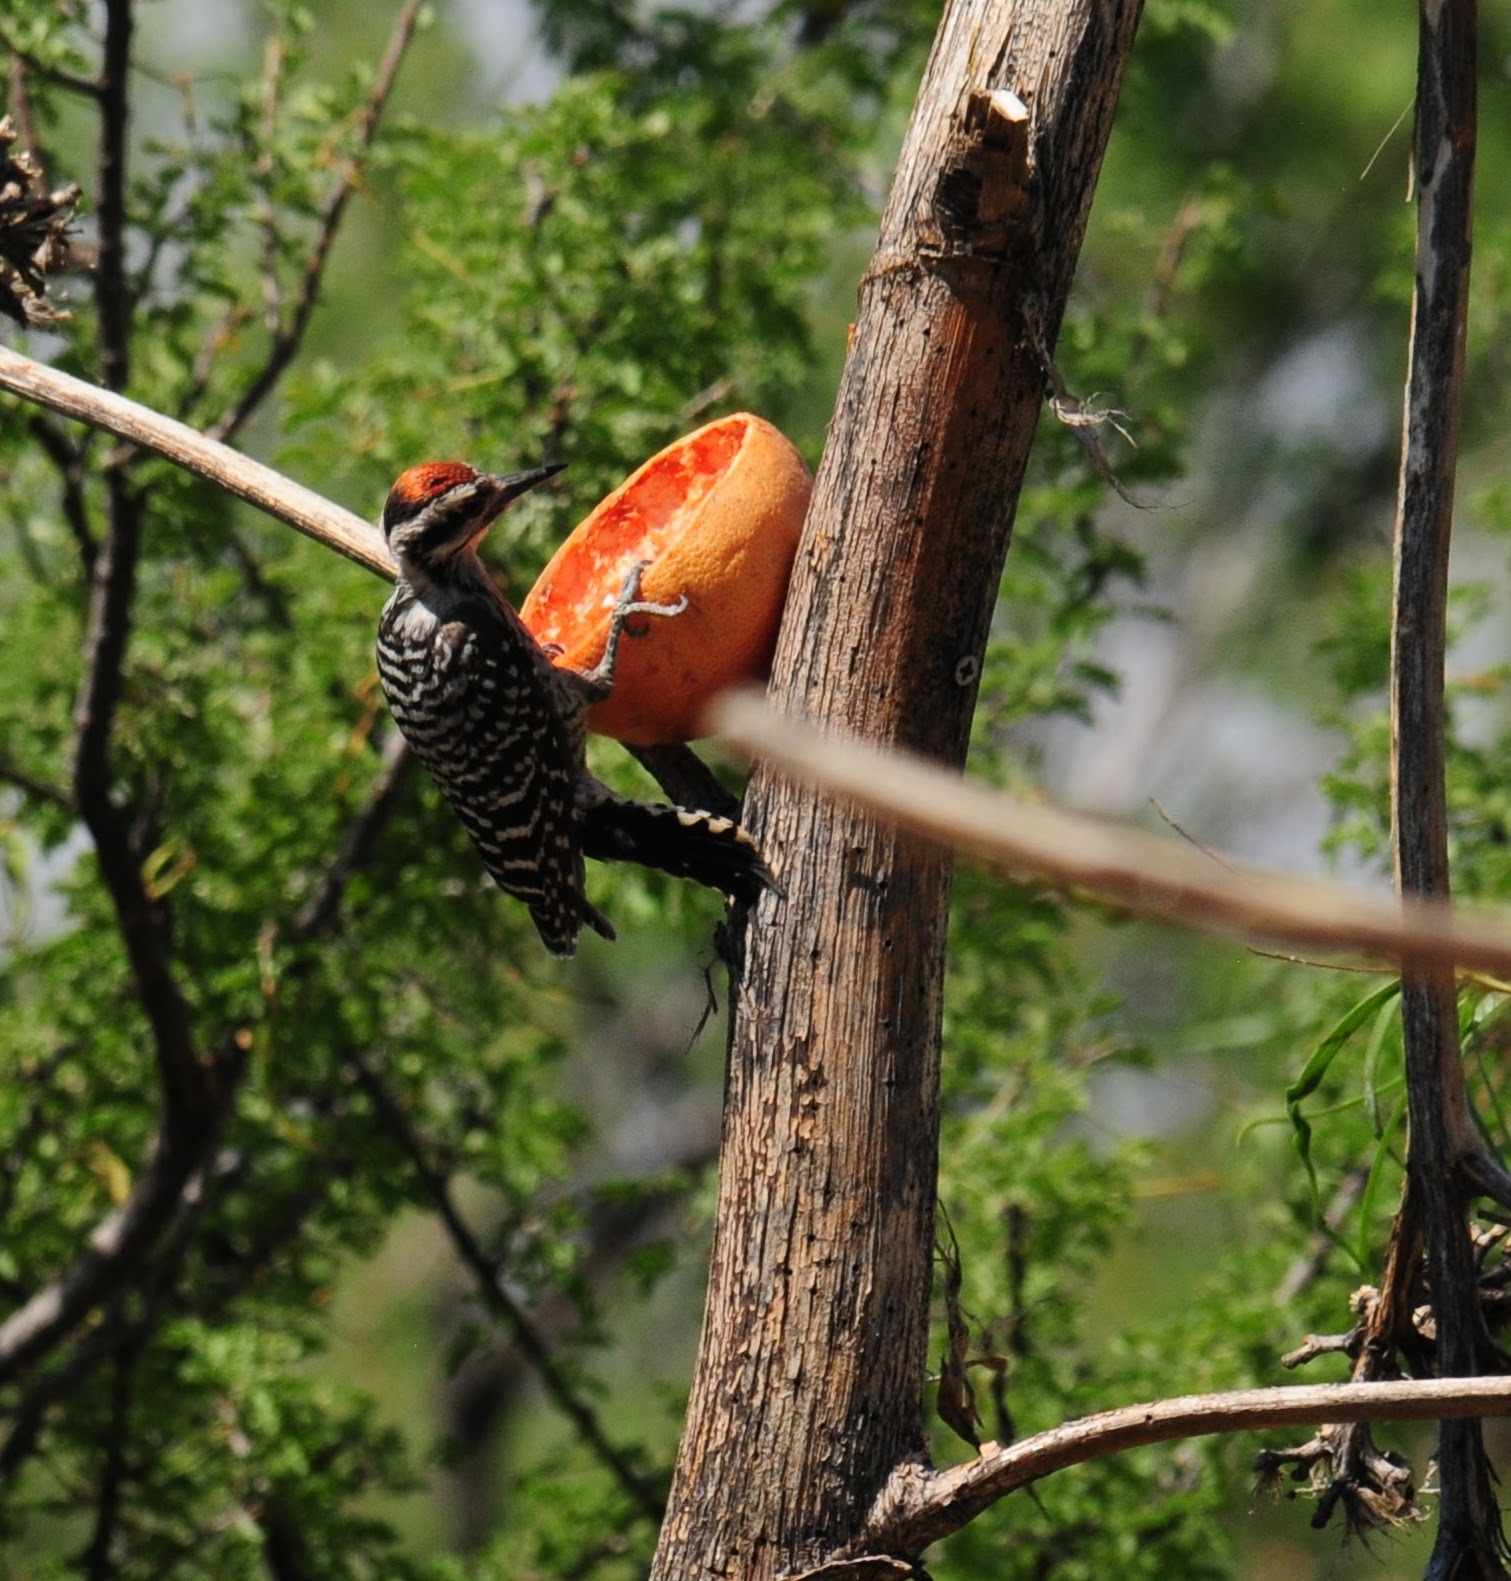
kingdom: Animalia
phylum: Chordata
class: Aves
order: Piciformes
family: Picidae
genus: Dryobates
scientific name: Dryobates scalaris
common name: Ladder-backed woodpecker
